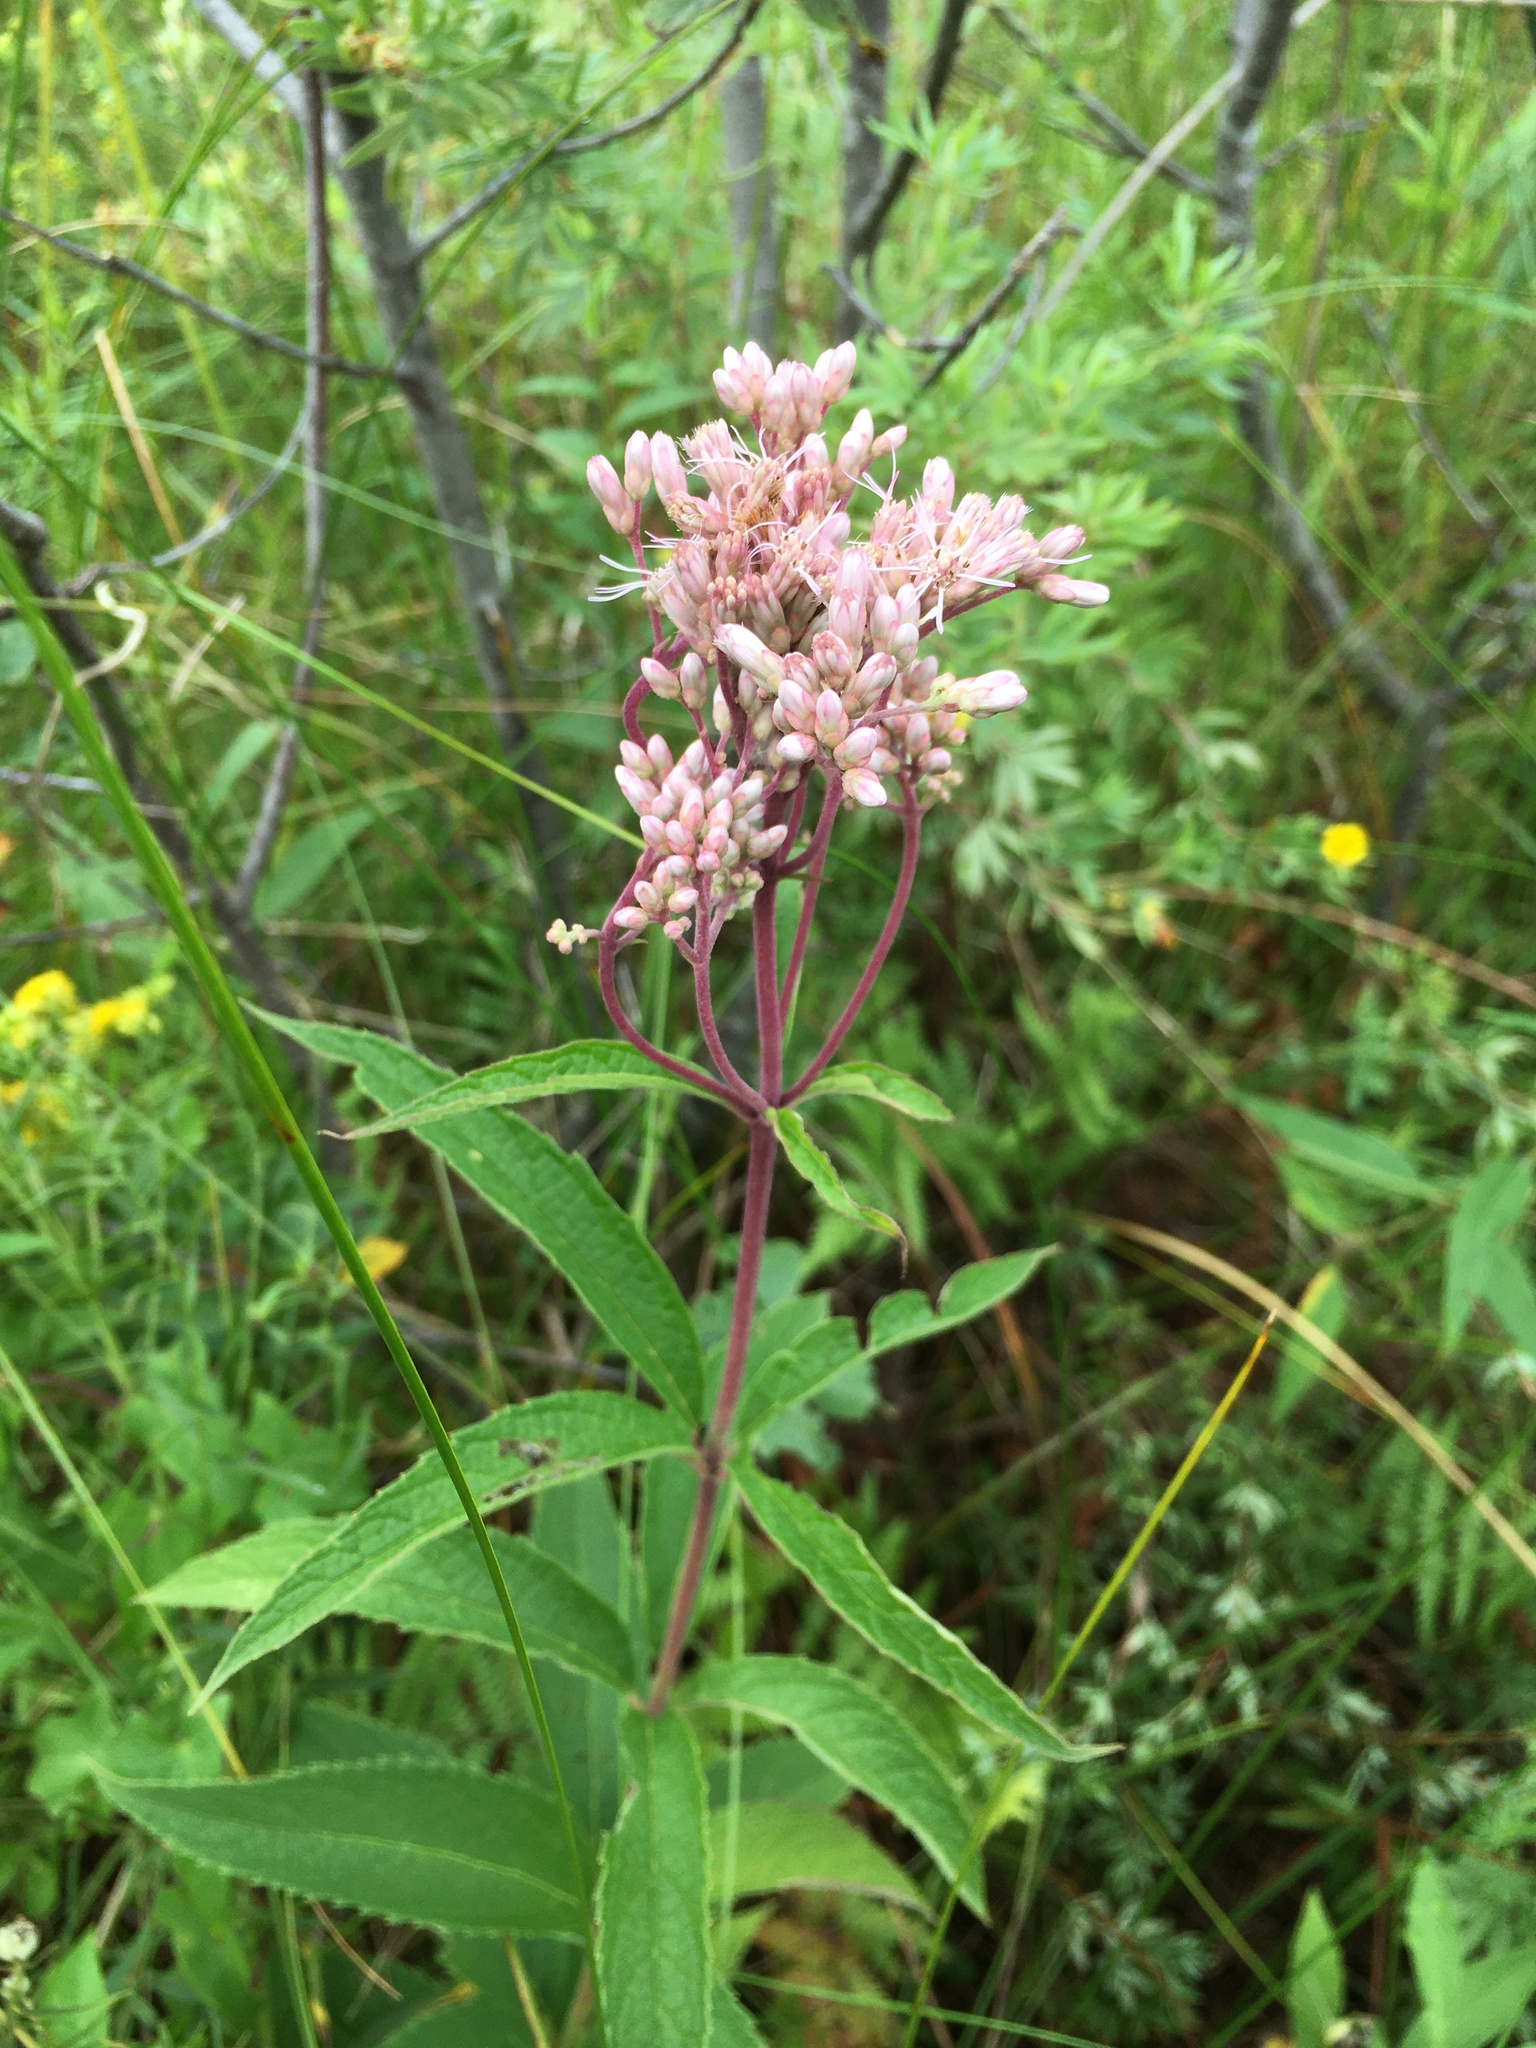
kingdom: Plantae
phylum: Tracheophyta
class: Magnoliopsida
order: Asterales
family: Asteraceae
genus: Eutrochium
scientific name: Eutrochium maculatum
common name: Spotted joe pye weed
